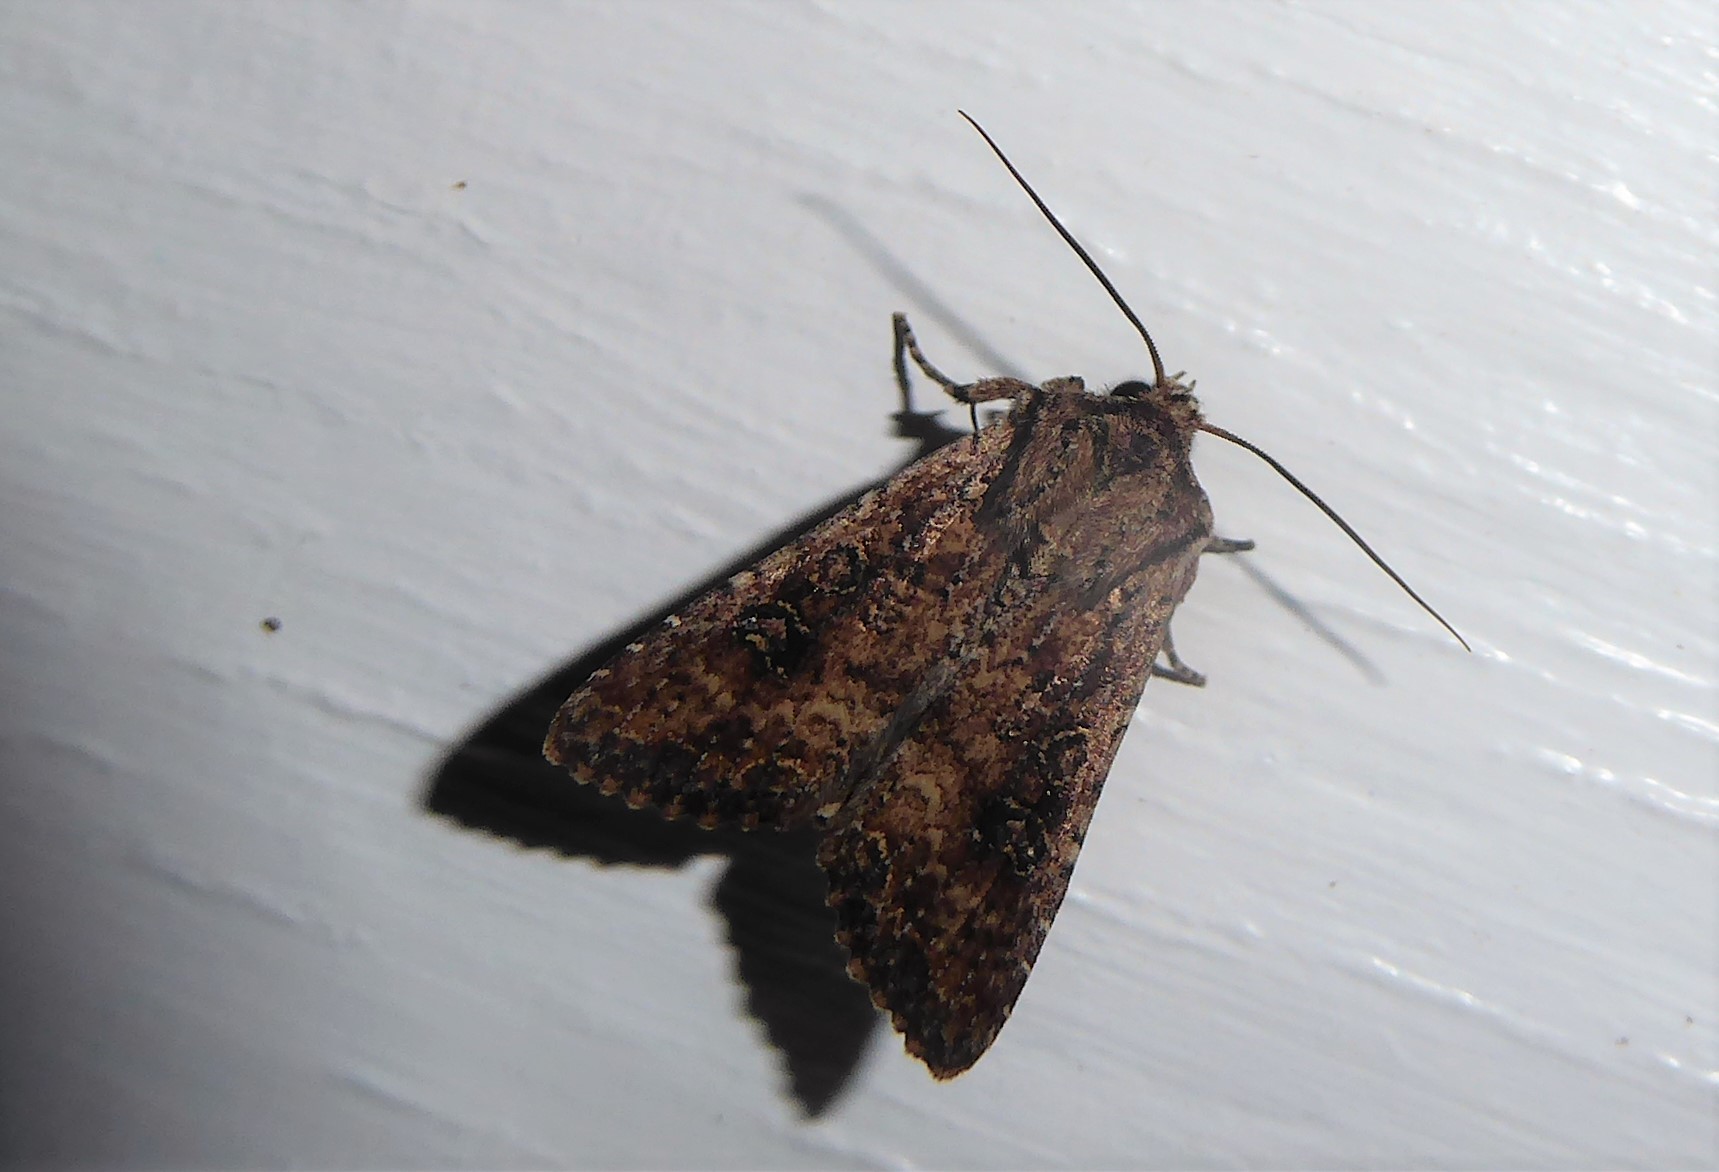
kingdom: Animalia
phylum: Arthropoda
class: Insecta
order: Lepidoptera
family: Noctuidae
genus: Ichneutica
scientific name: Ichneutica morosa
